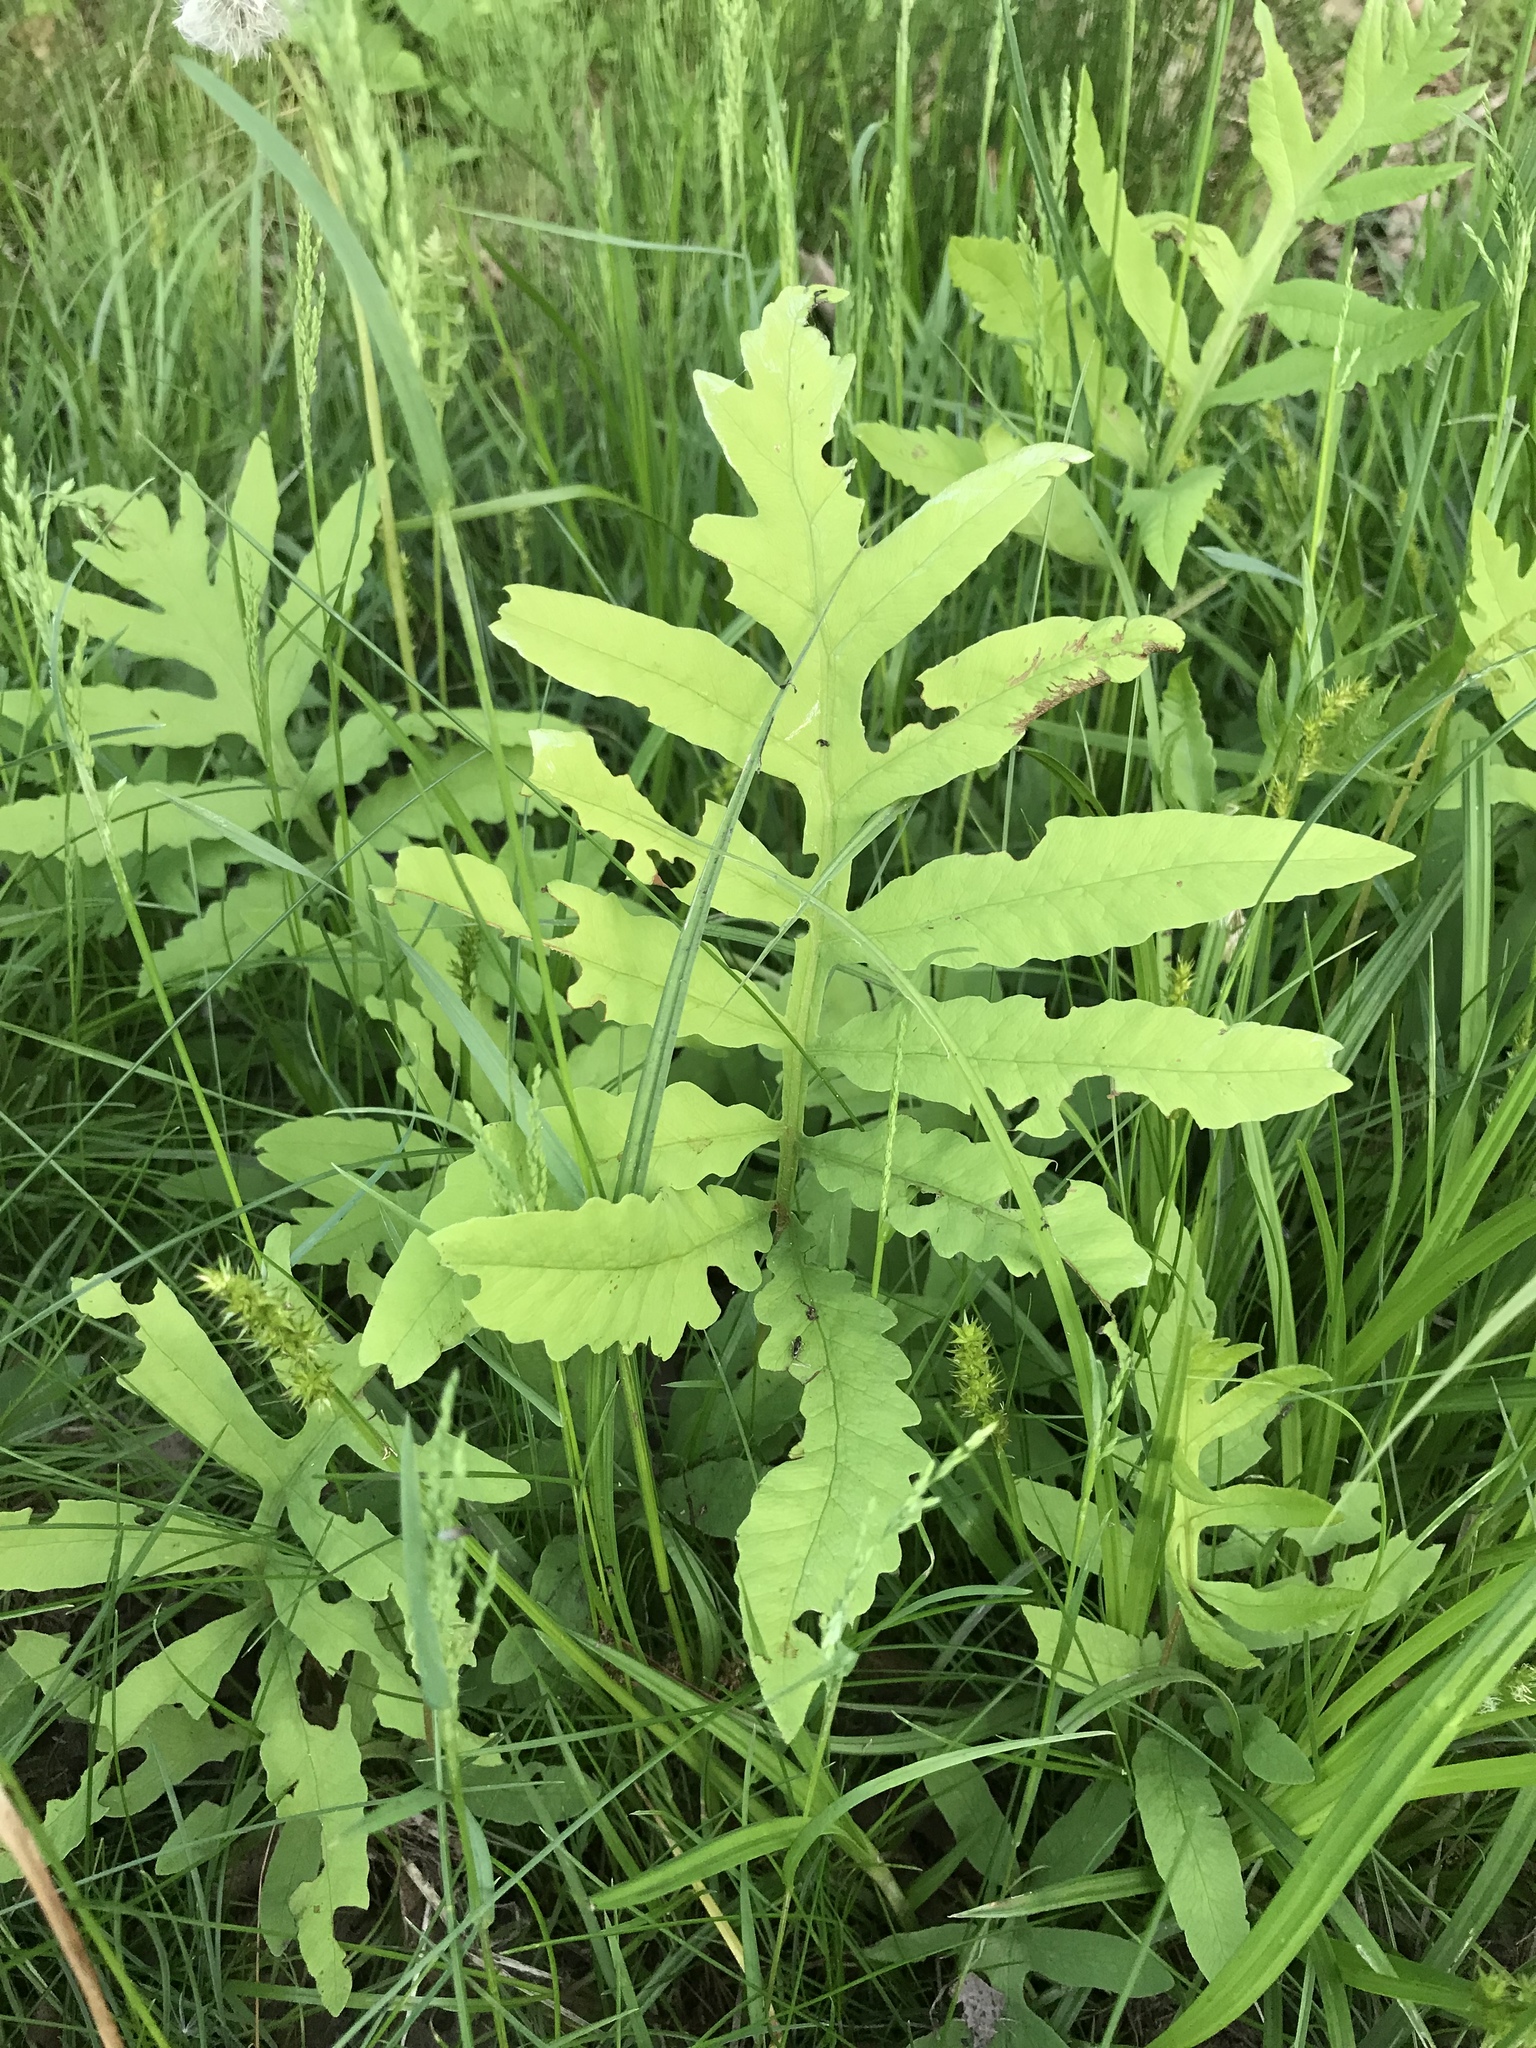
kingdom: Plantae
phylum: Tracheophyta
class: Polypodiopsida
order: Polypodiales
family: Onocleaceae
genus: Onoclea
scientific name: Onoclea sensibilis
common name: Sensitive fern
